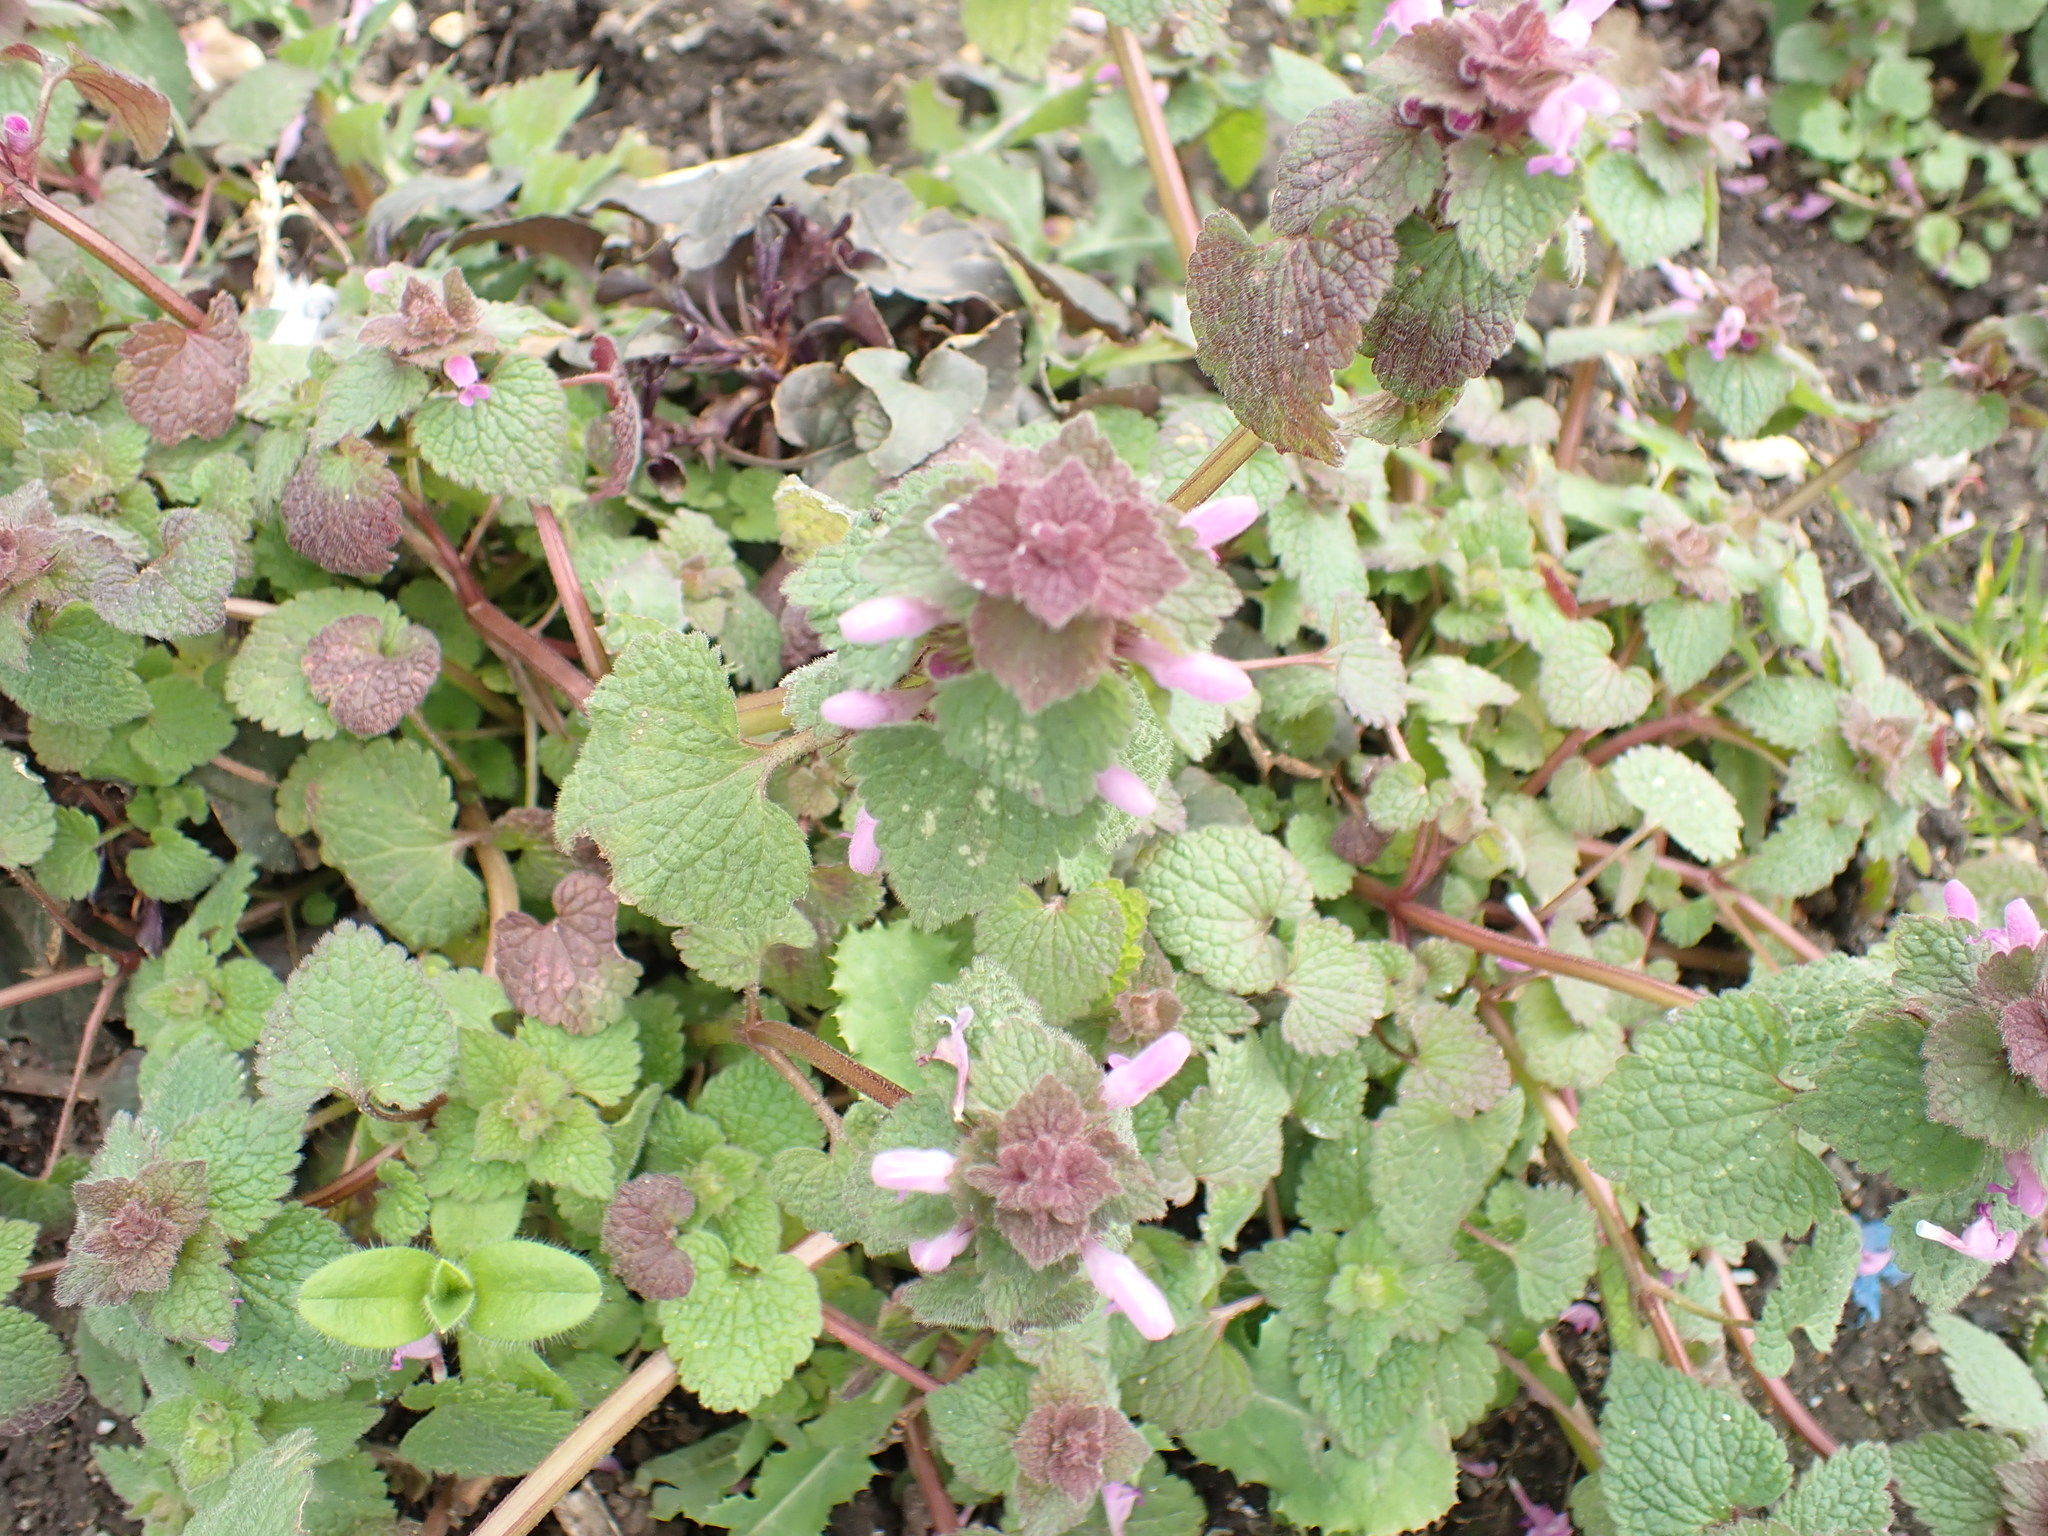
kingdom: Plantae
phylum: Tracheophyta
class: Magnoliopsida
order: Lamiales
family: Lamiaceae
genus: Lamium
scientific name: Lamium purpureum
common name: Red dead-nettle
